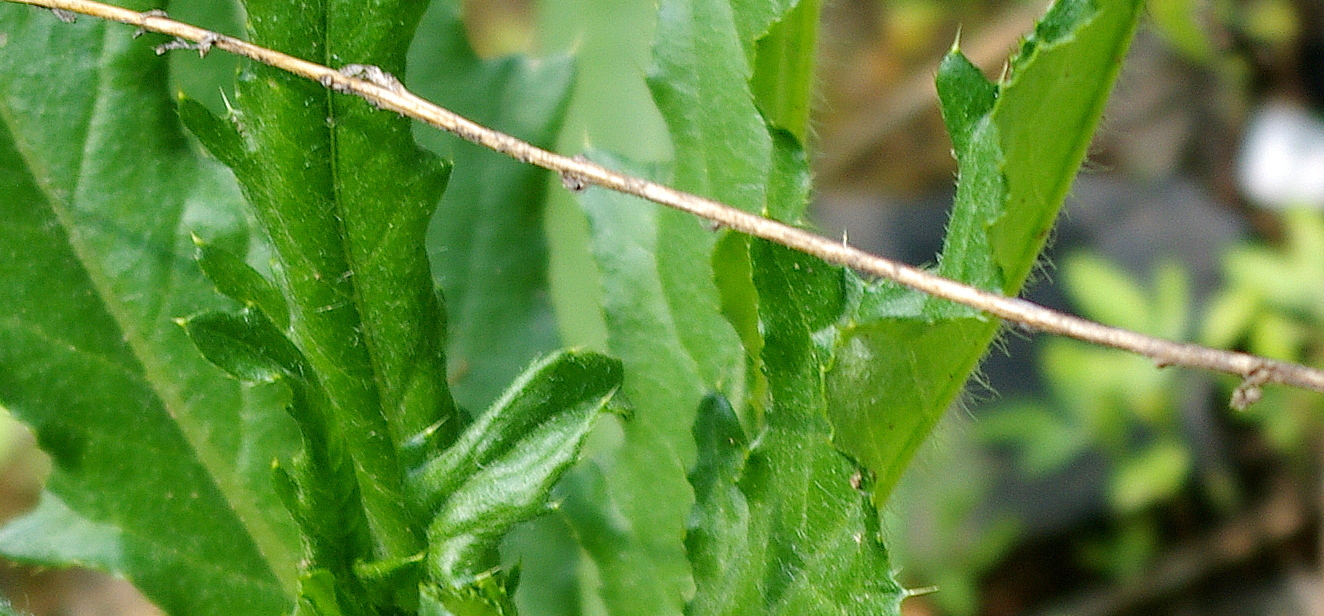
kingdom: Plantae
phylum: Tracheophyta
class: Magnoliopsida
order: Asterales
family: Asteraceae
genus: Cirsium
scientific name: Cirsium arvense
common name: Creeping thistle
